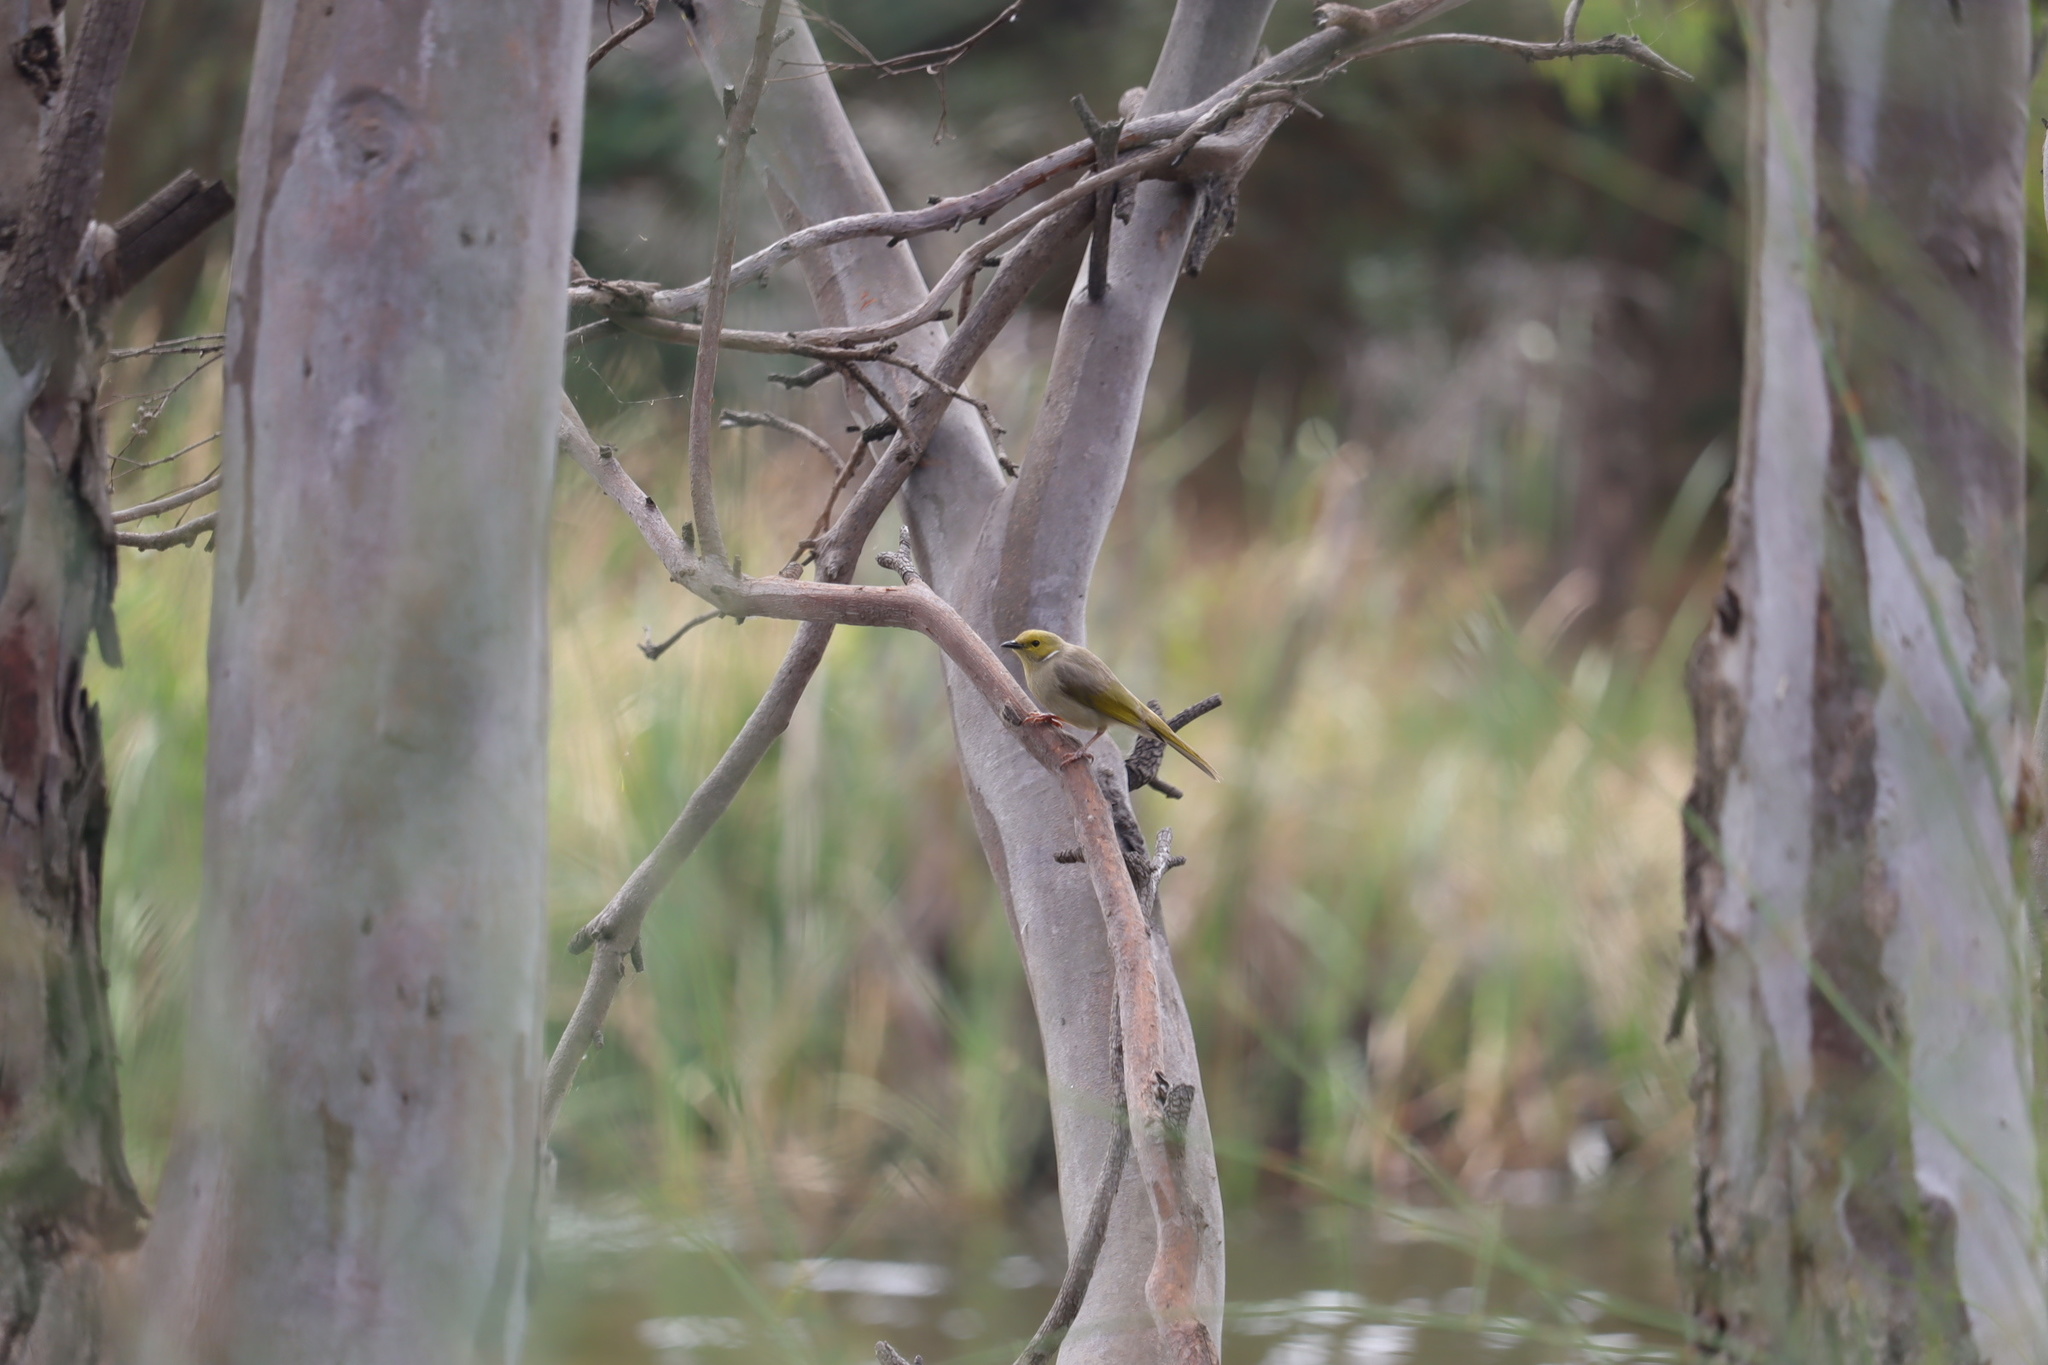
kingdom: Animalia
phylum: Chordata
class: Aves
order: Passeriformes
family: Meliphagidae
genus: Ptilotula
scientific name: Ptilotula penicillata
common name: White-plumed honeyeater
